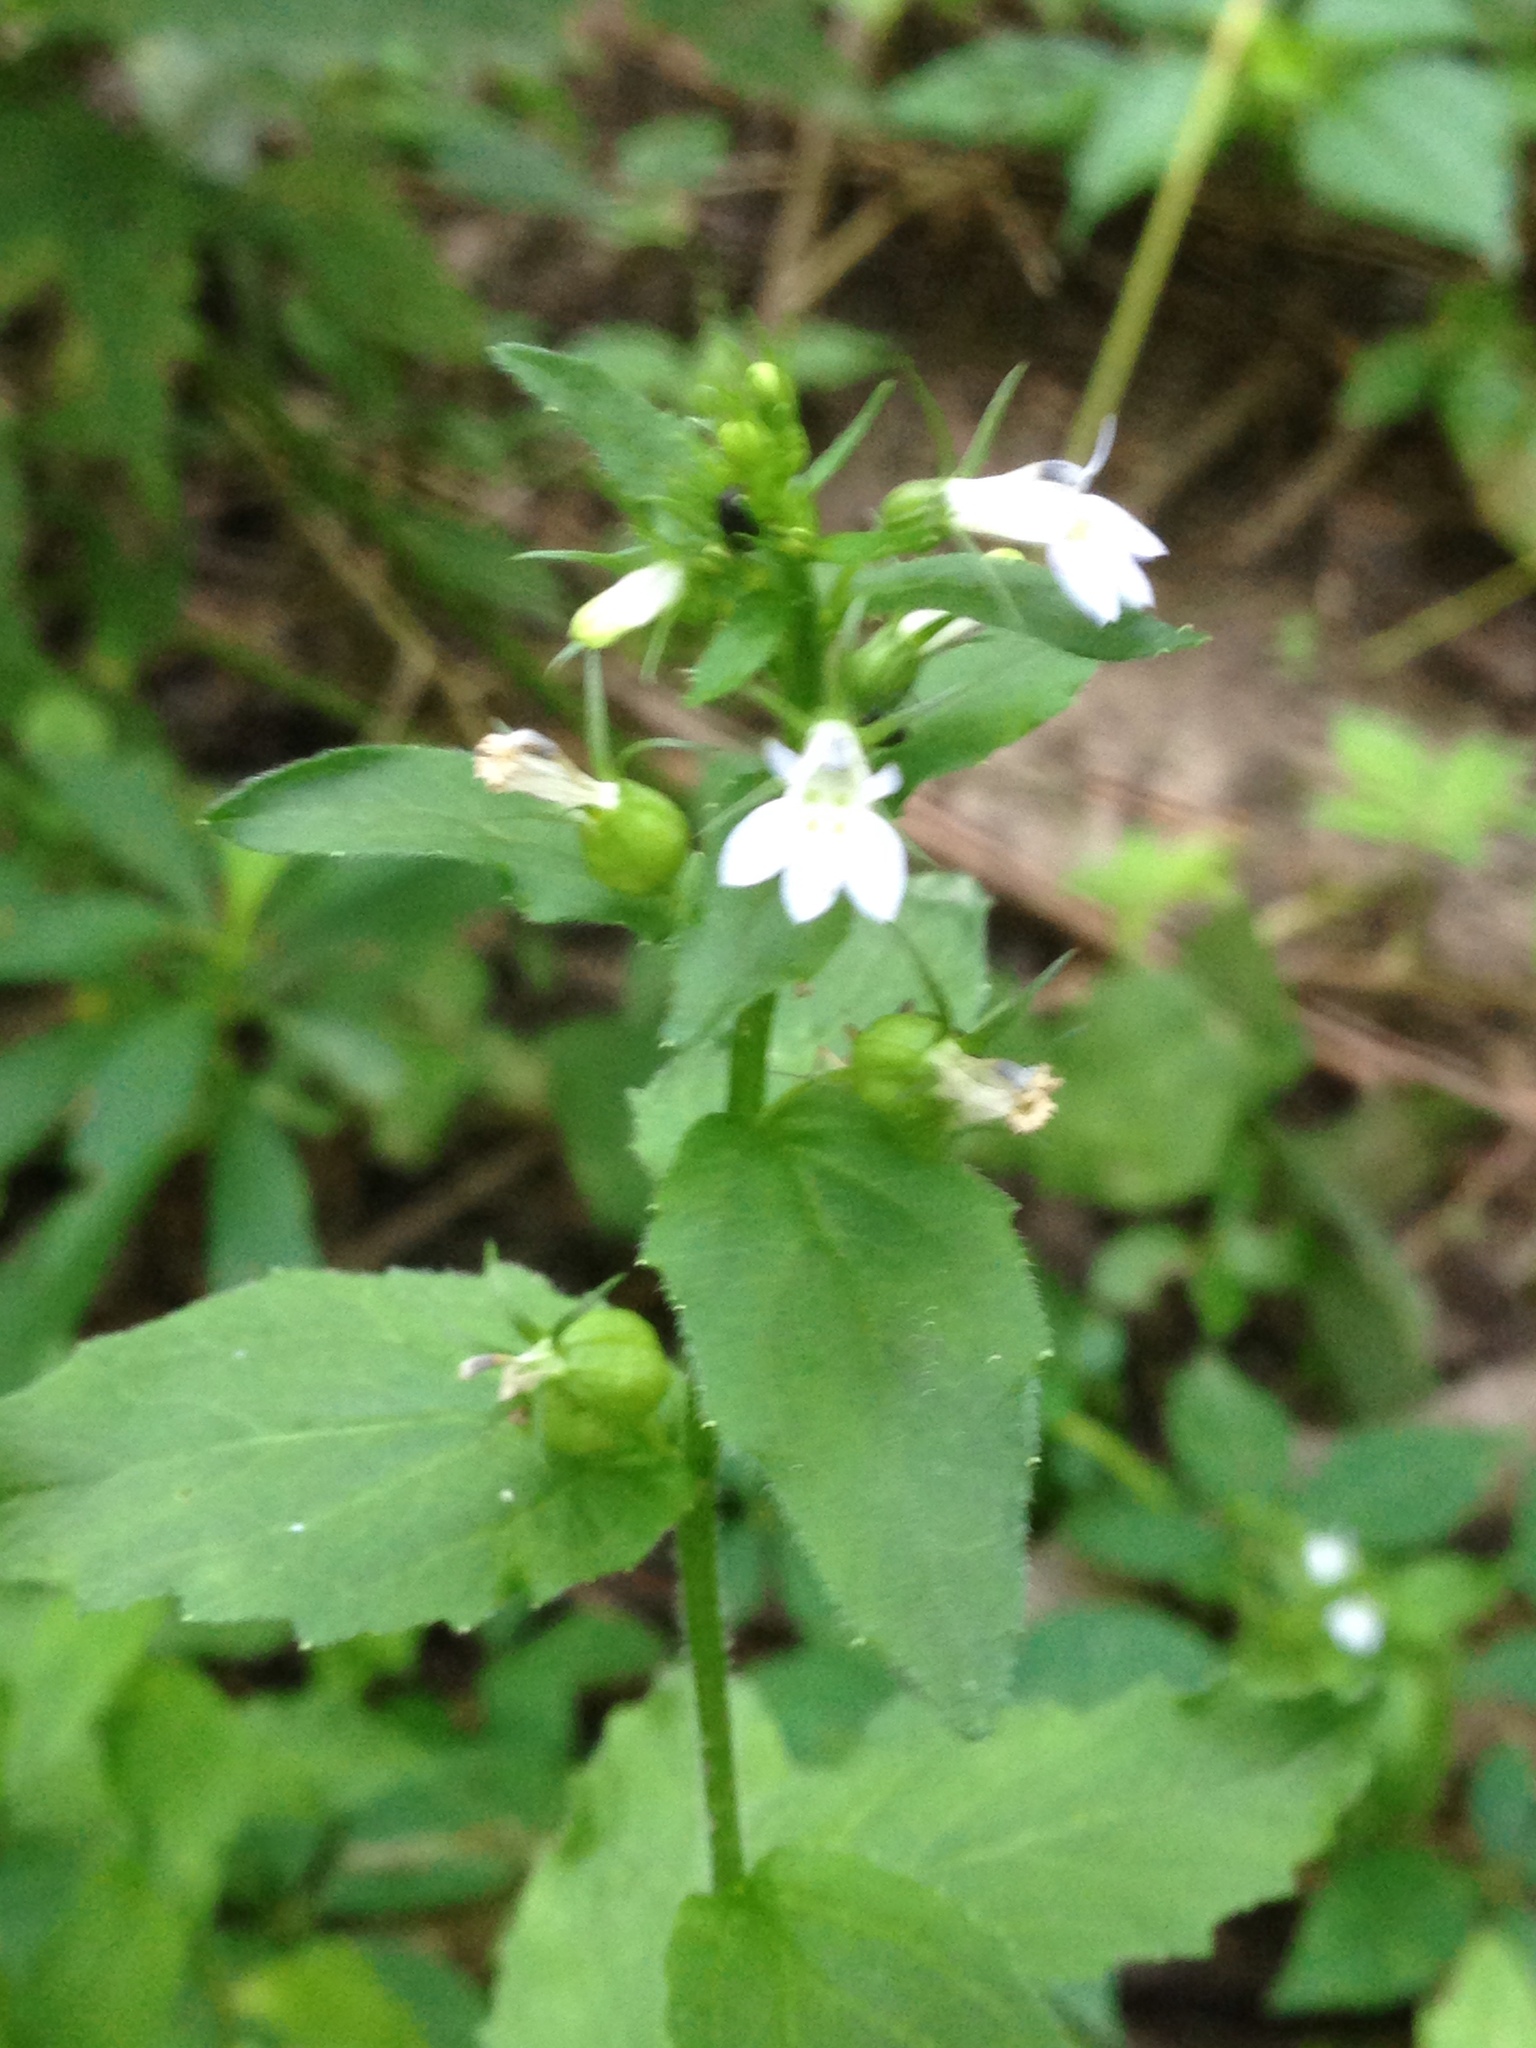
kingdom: Plantae
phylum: Tracheophyta
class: Magnoliopsida
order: Asterales
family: Campanulaceae
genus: Lobelia
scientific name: Lobelia inflata
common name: Indian tobacco
